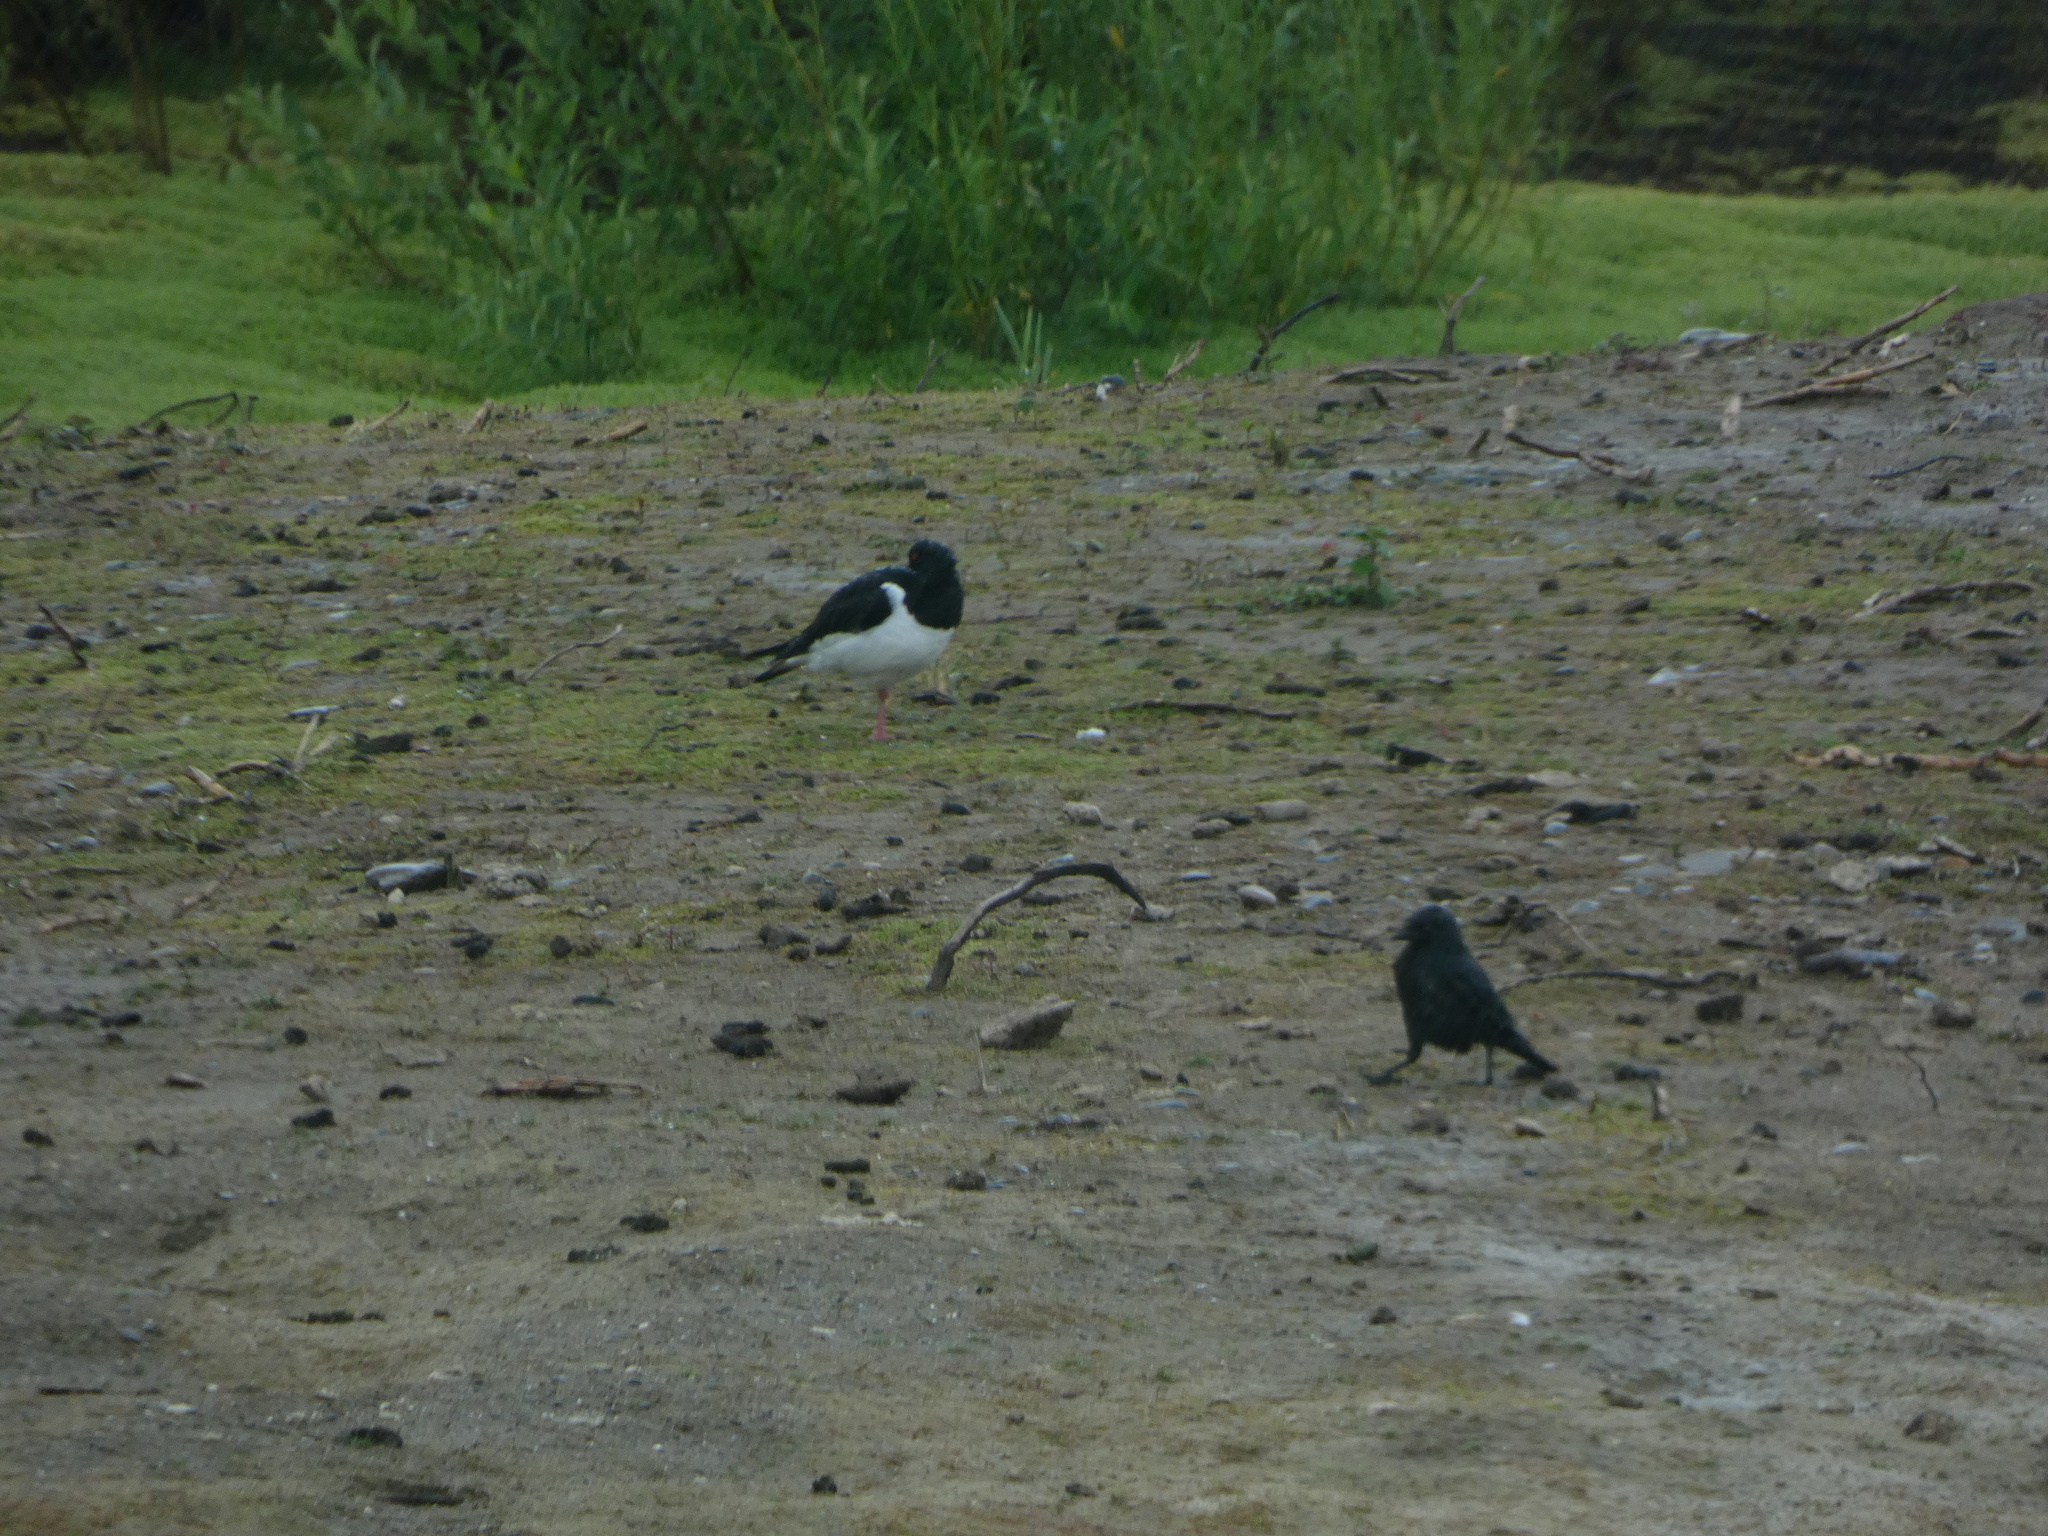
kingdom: Animalia
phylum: Chordata
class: Aves
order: Charadriiformes
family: Haematopodidae
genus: Haematopus
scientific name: Haematopus ostralegus
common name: Eurasian oystercatcher
